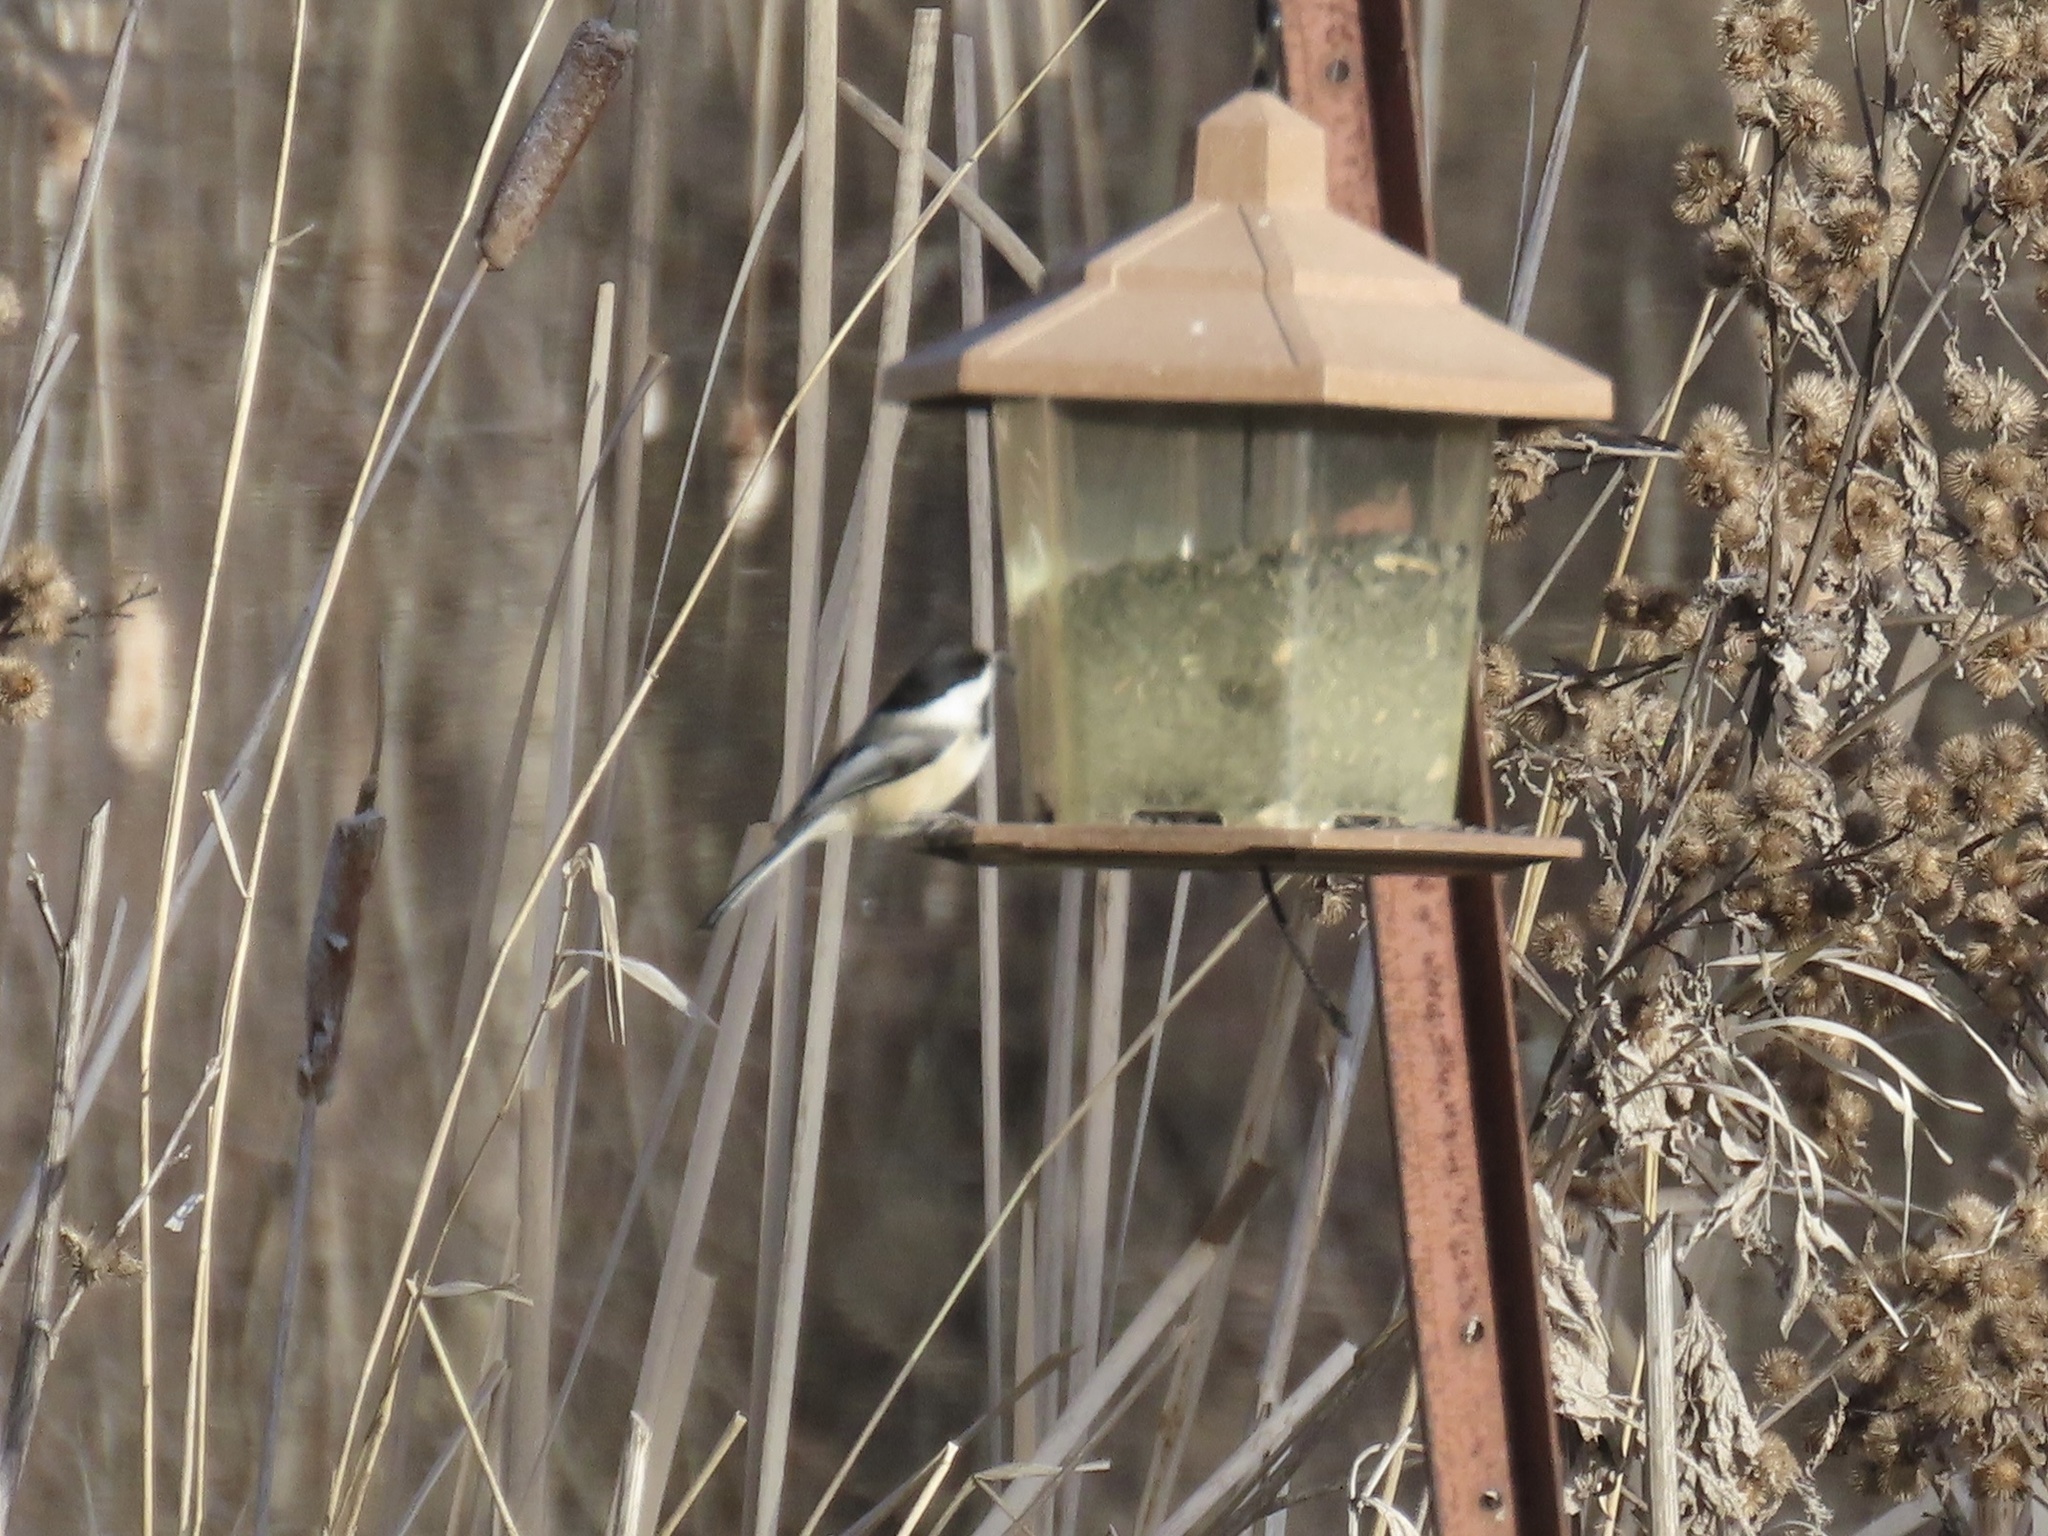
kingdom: Animalia
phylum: Chordata
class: Aves
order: Passeriformes
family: Paridae
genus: Poecile
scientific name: Poecile atricapillus
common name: Black-capped chickadee
